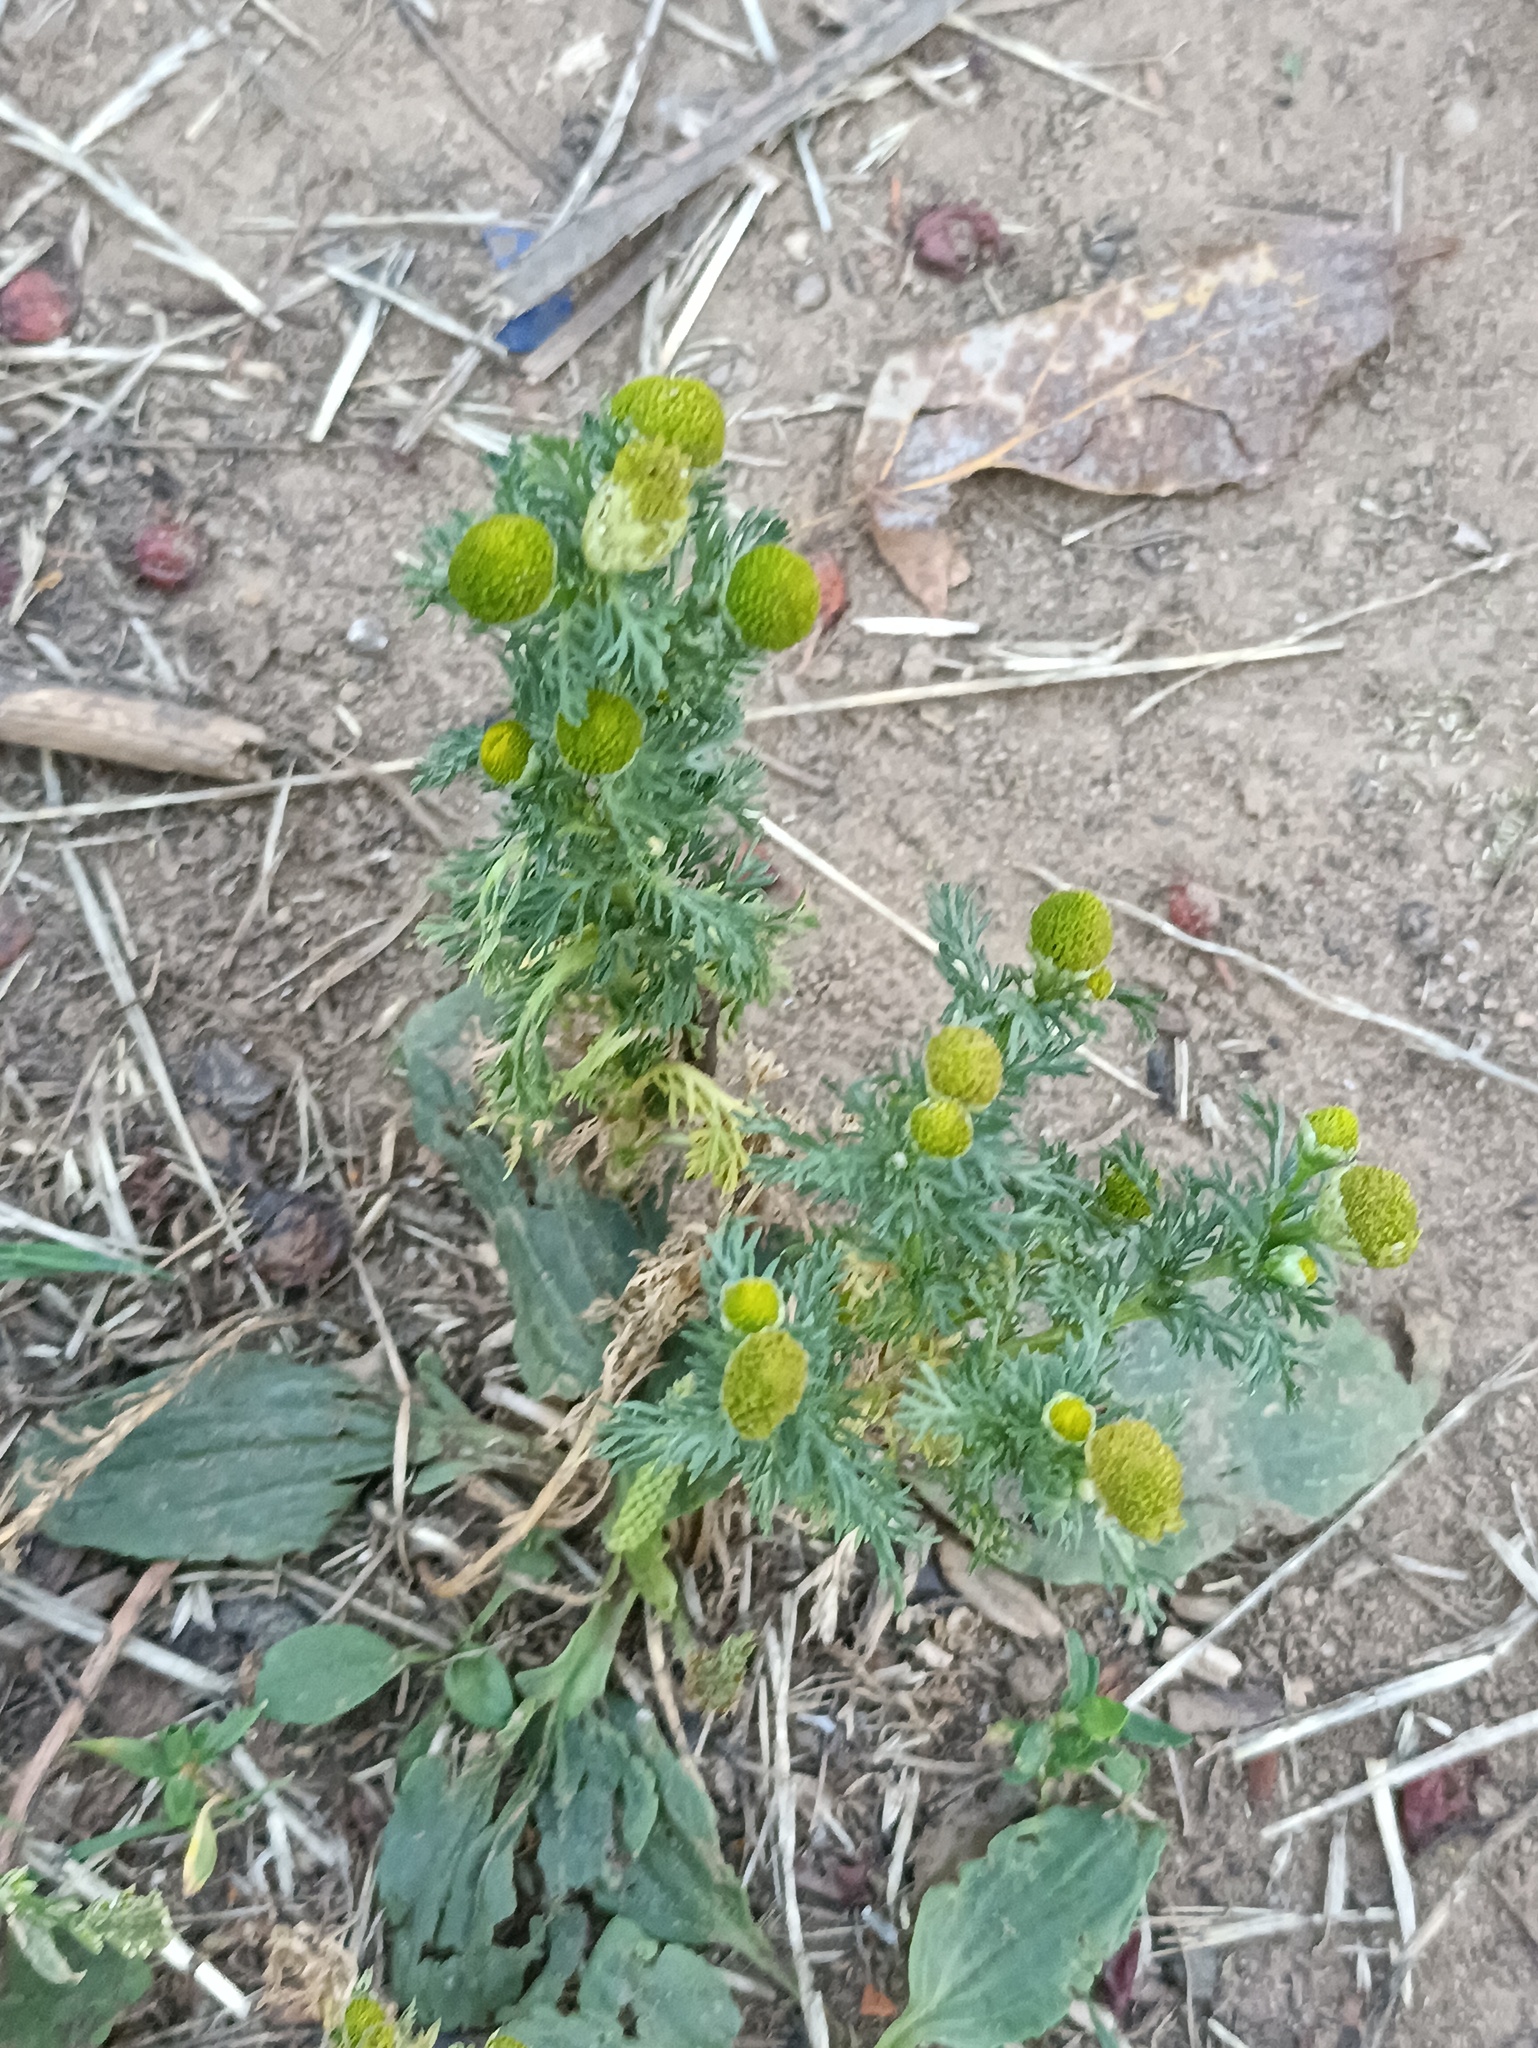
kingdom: Plantae
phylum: Tracheophyta
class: Magnoliopsida
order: Asterales
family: Asteraceae
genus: Matricaria
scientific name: Matricaria discoidea
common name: Disc mayweed
